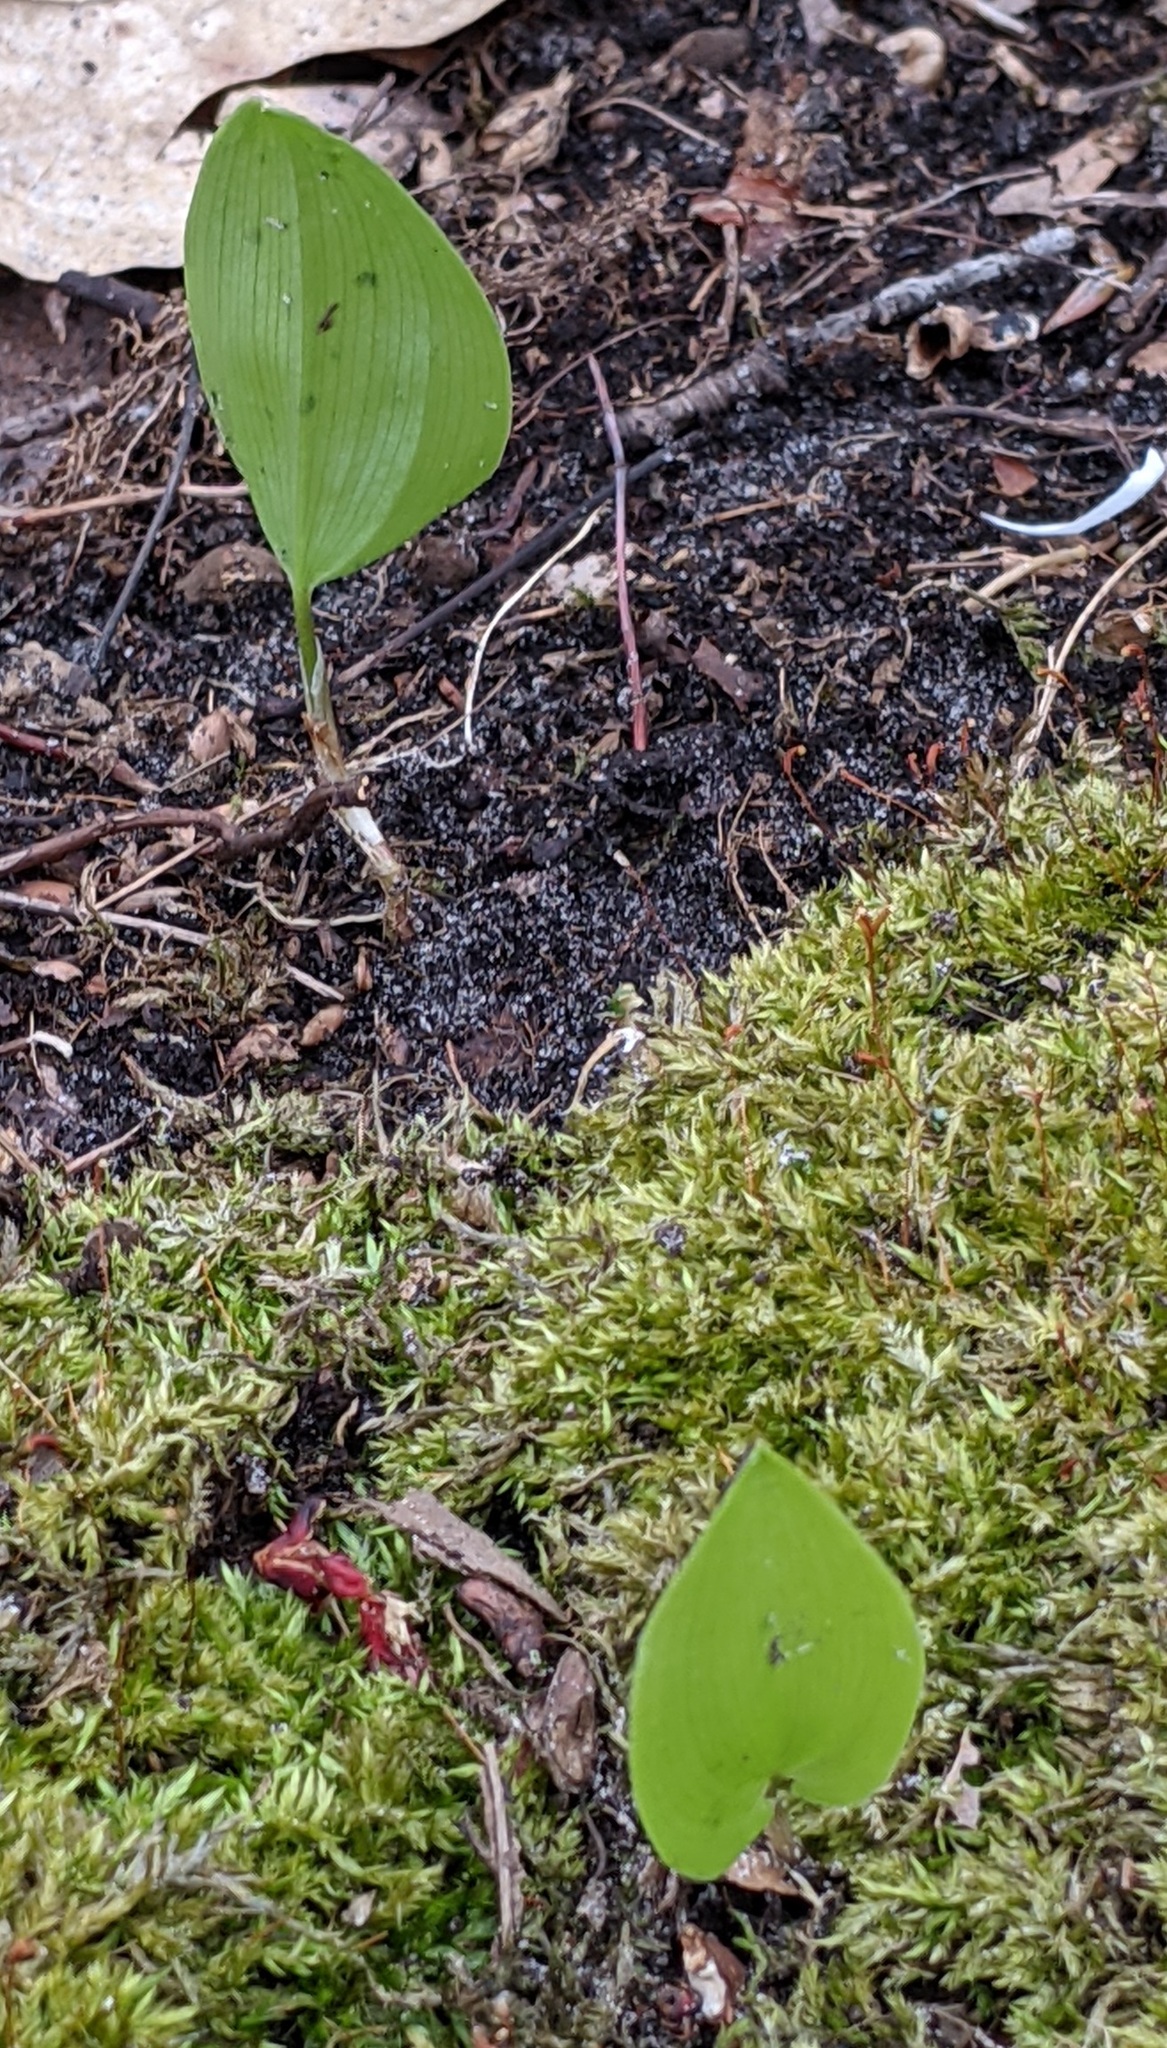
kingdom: Plantae
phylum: Tracheophyta
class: Liliopsida
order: Asparagales
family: Asparagaceae
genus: Maianthemum
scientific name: Maianthemum canadense
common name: False lily-of-the-valley
